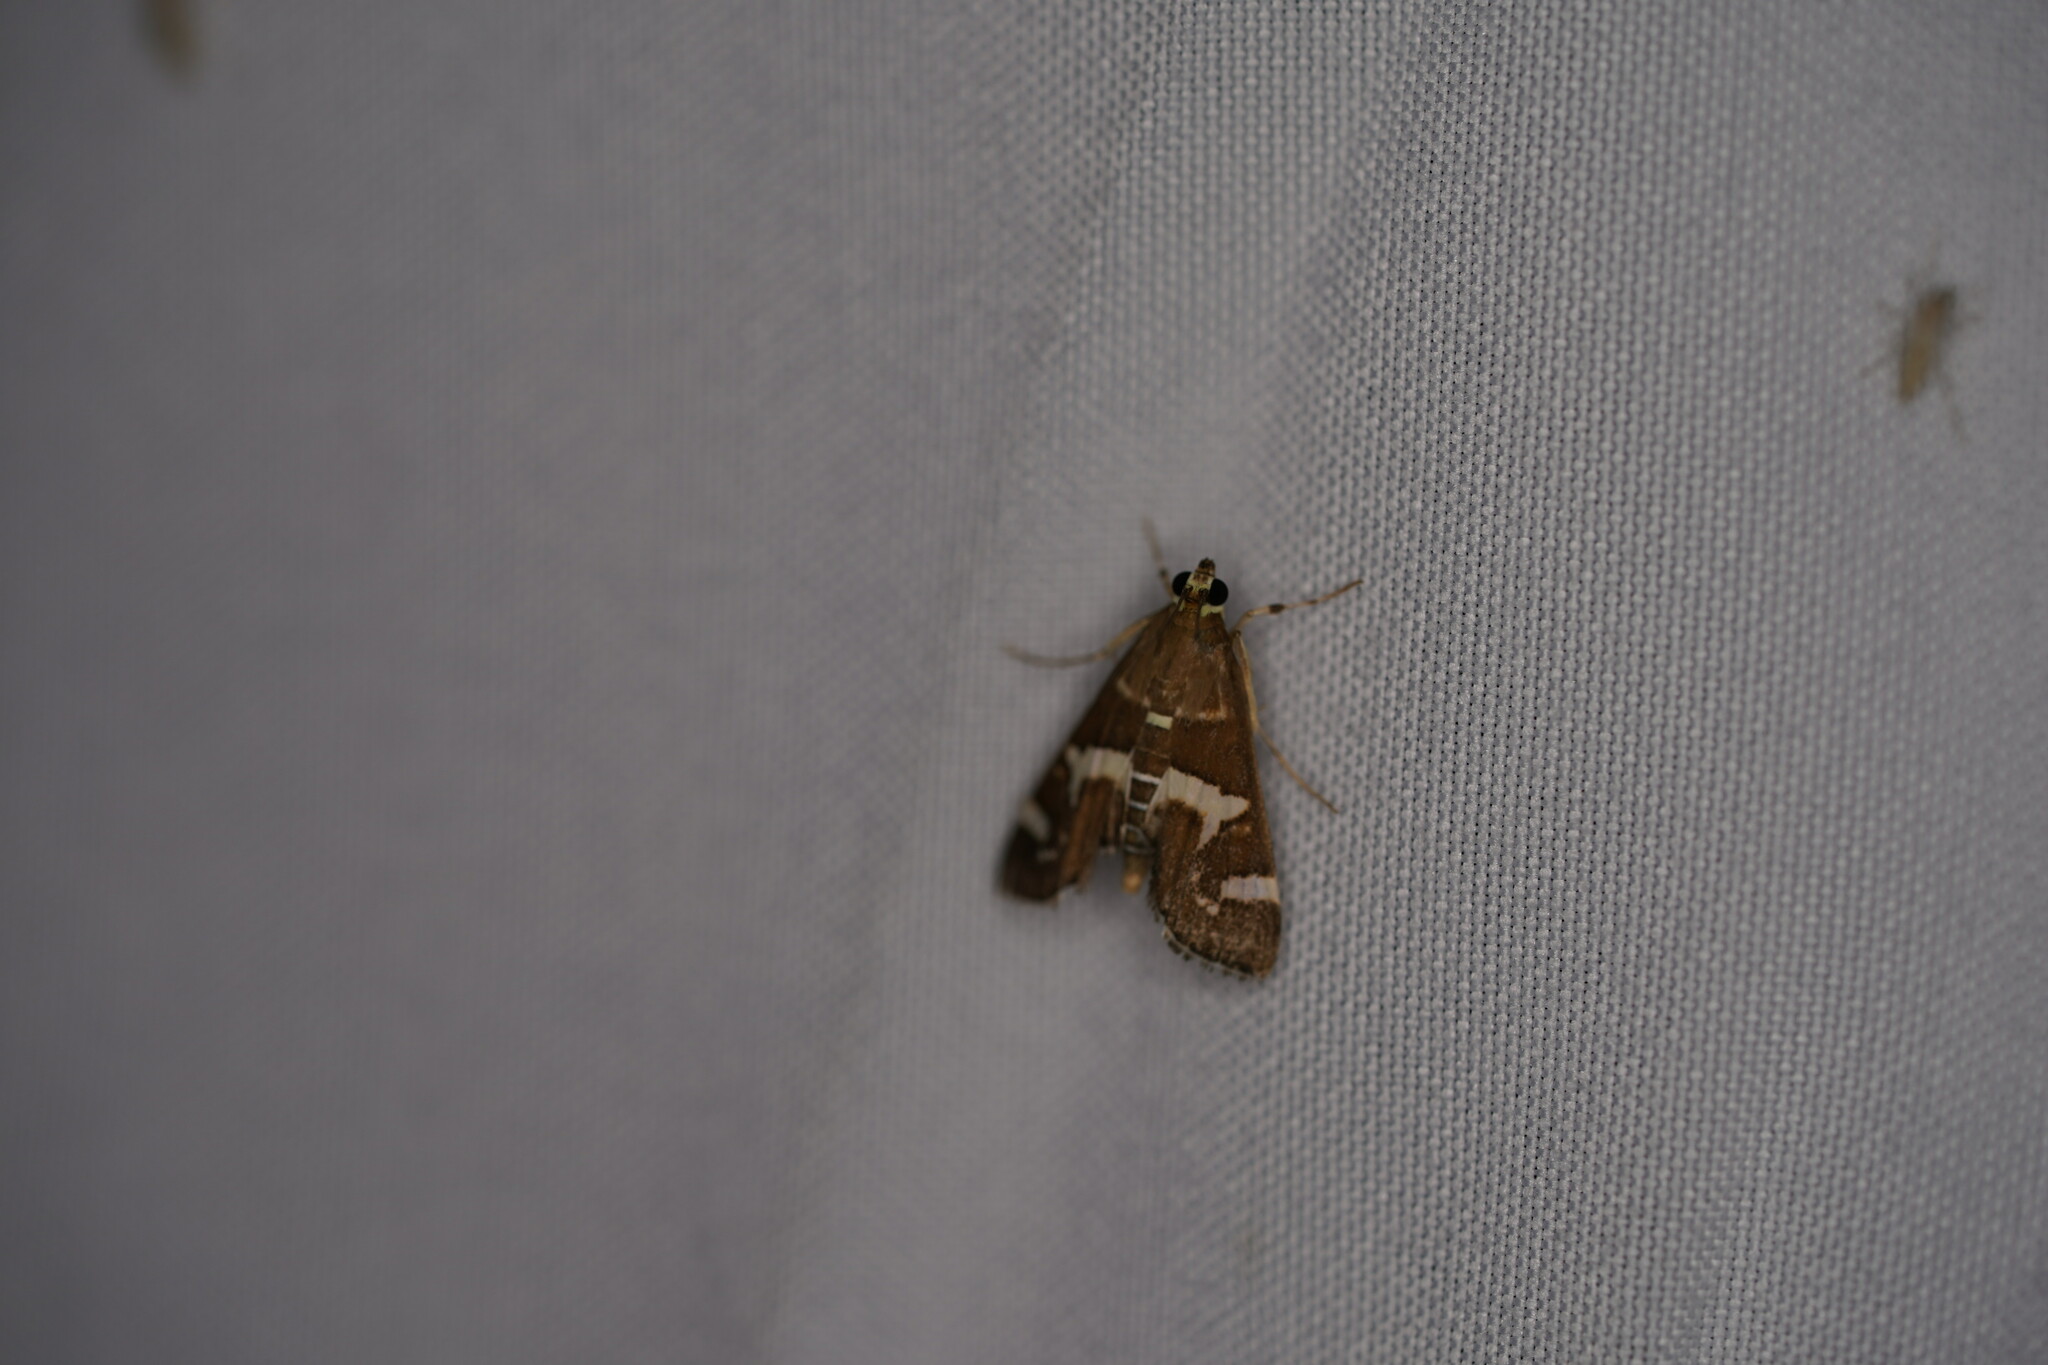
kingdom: Animalia
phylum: Arthropoda
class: Insecta
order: Lepidoptera
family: Crambidae
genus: Spoladea
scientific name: Spoladea recurvalis
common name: Beet webworm moth
